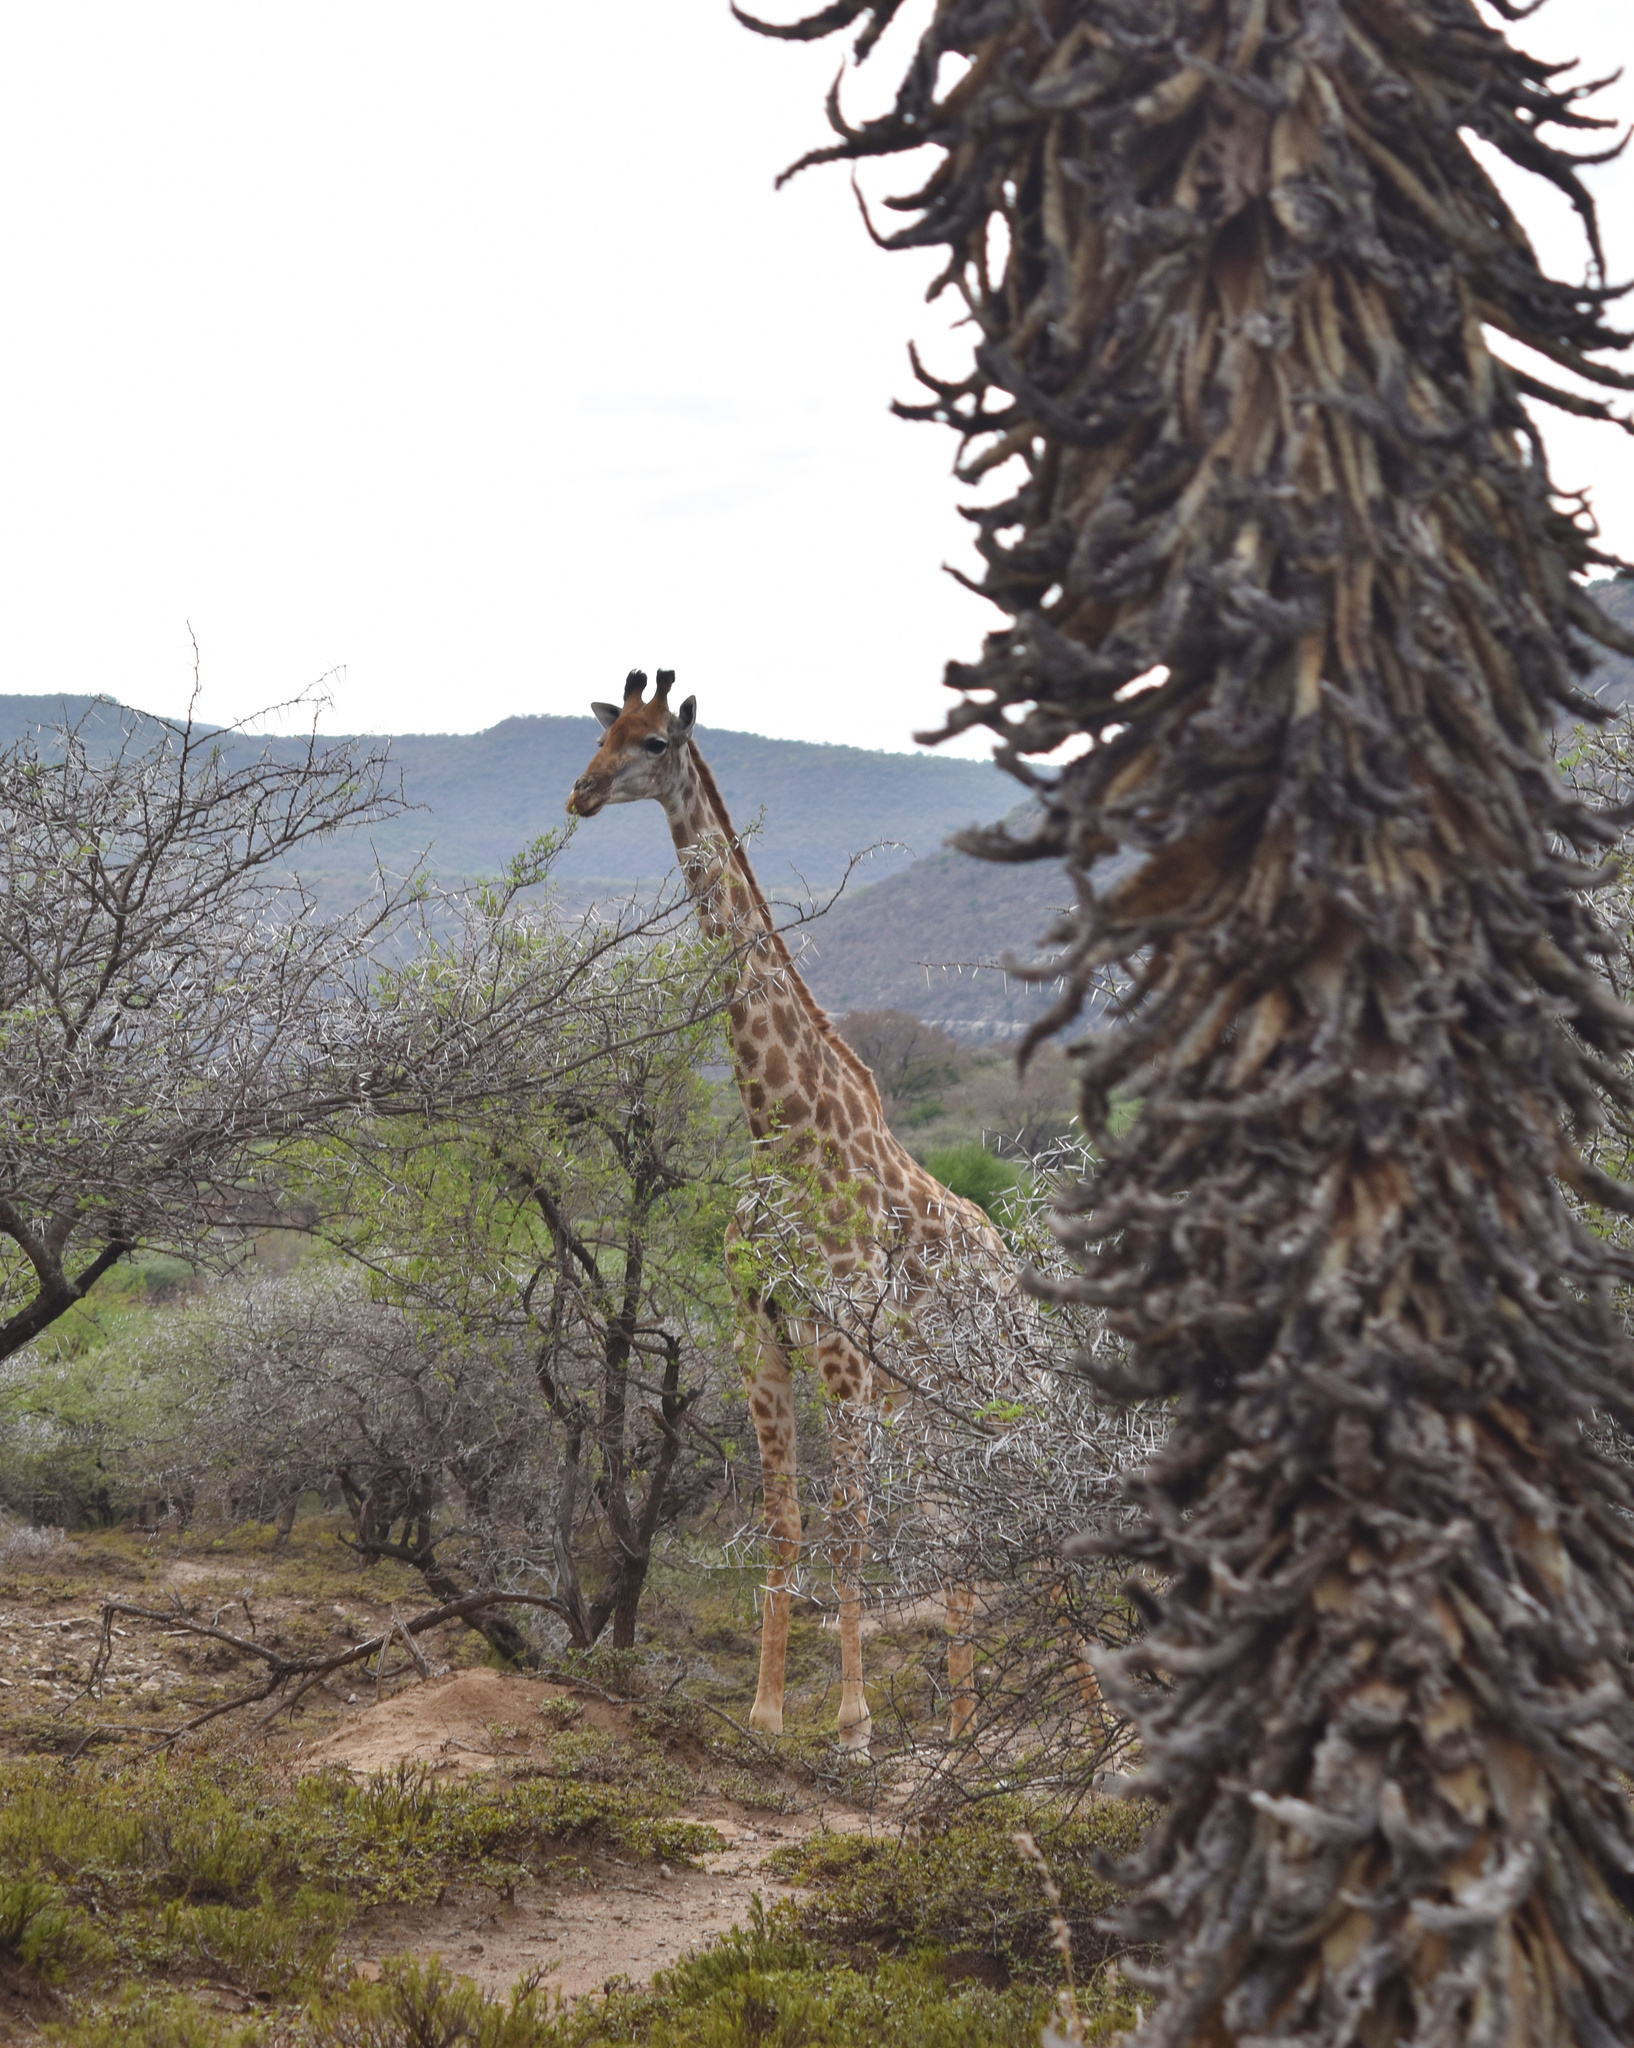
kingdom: Animalia
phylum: Chordata
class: Mammalia
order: Artiodactyla
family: Giraffidae
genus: Giraffa
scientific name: Giraffa giraffa
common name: Southern giraffe
